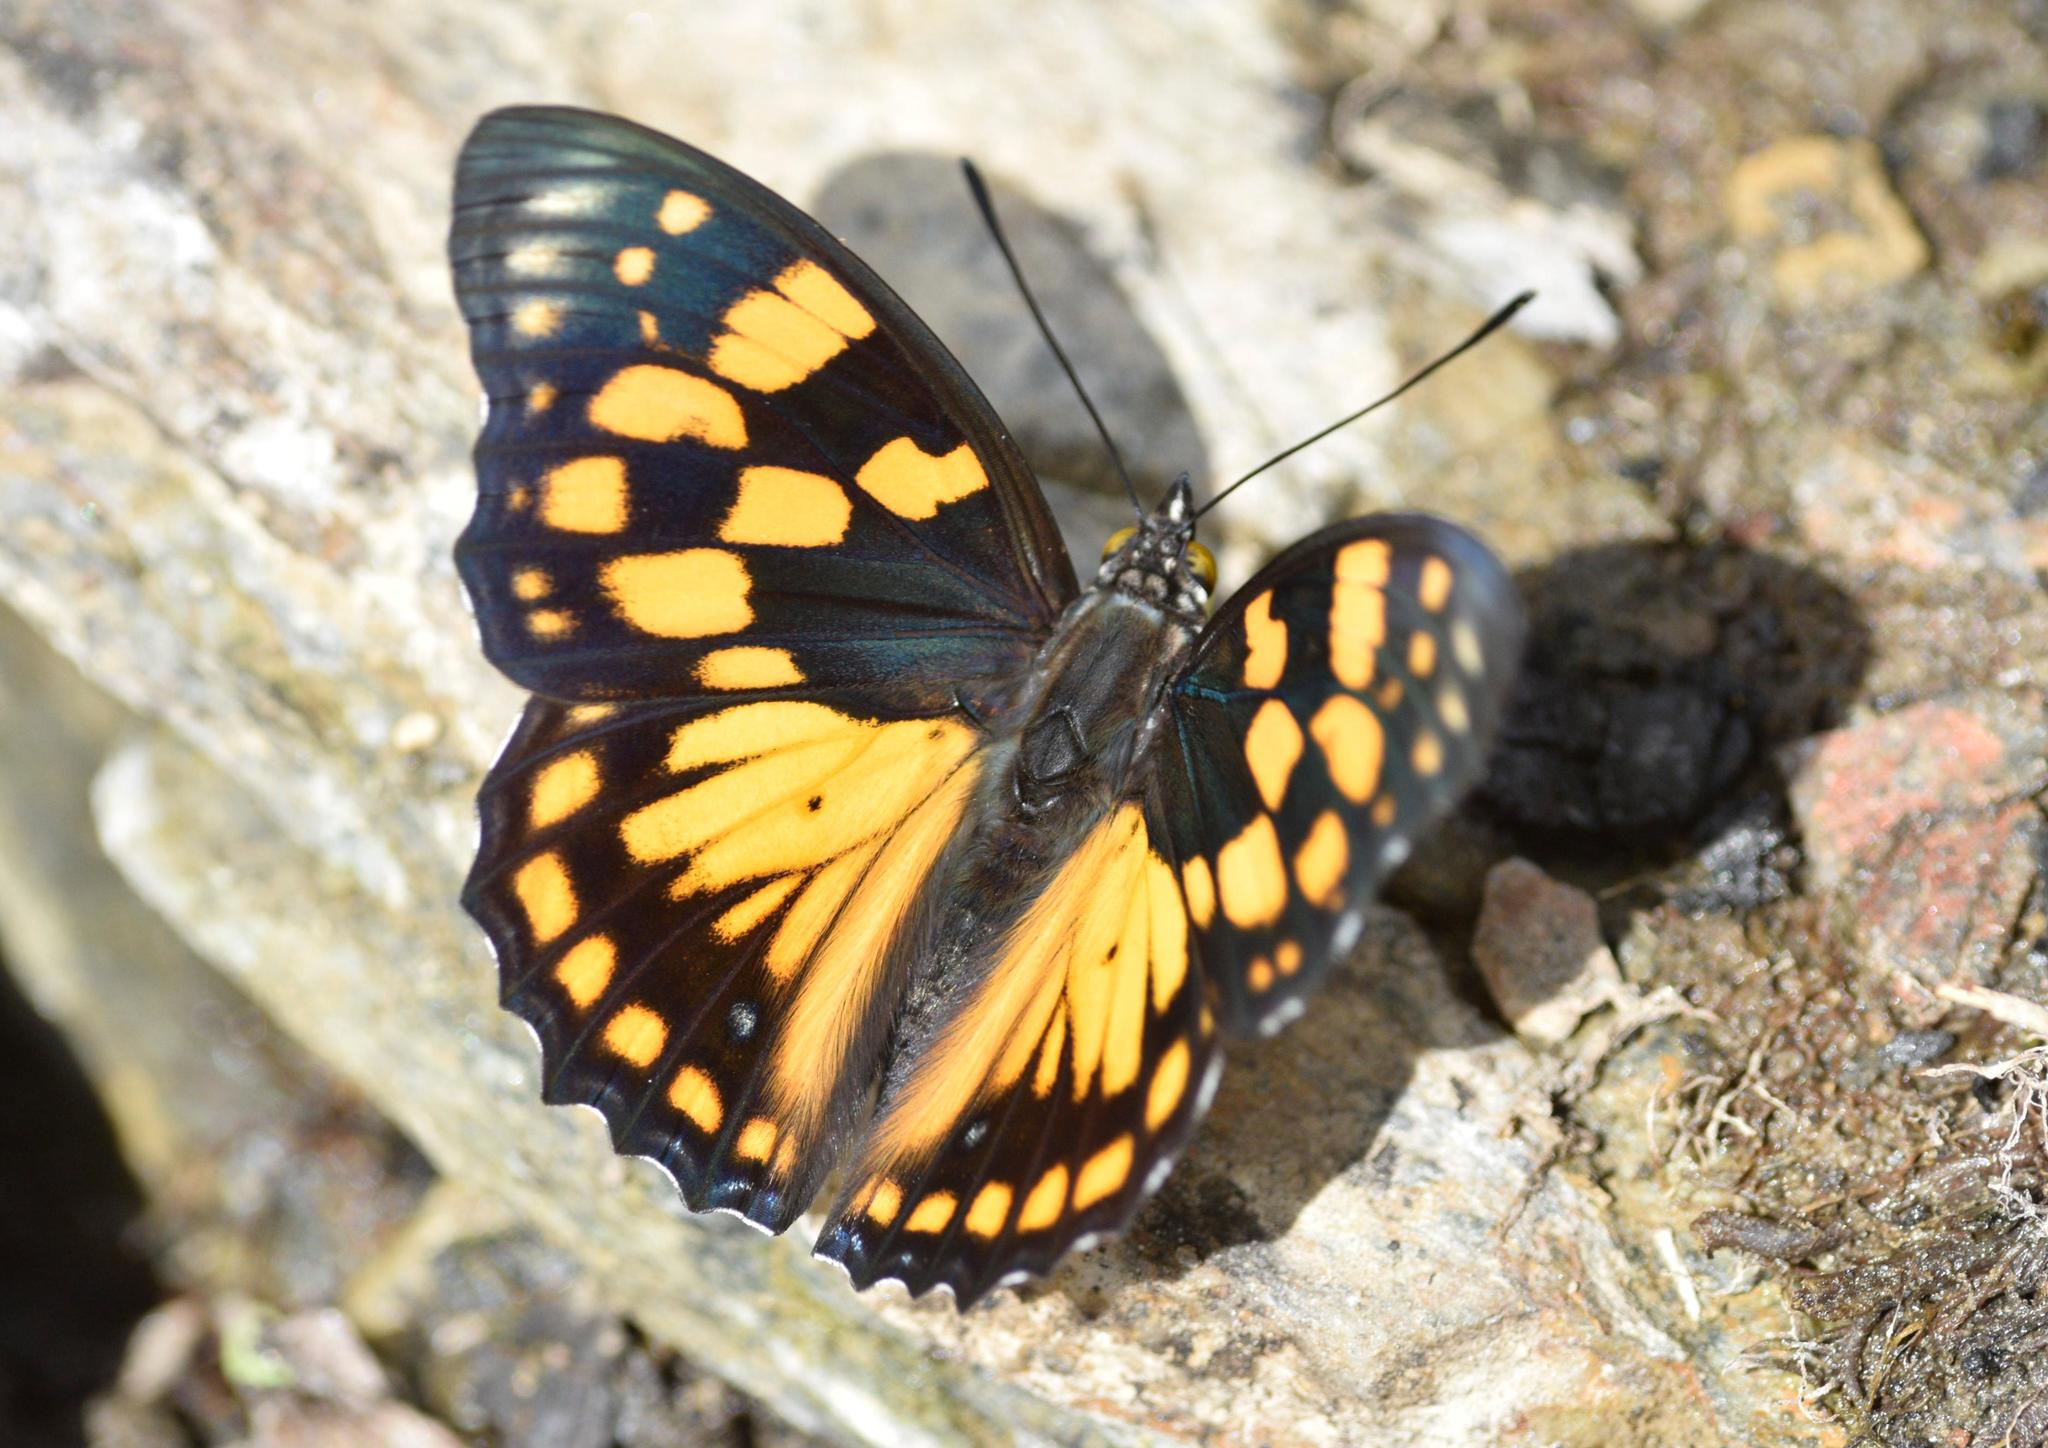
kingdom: Animalia
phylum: Arthropoda
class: Insecta
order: Lepidoptera
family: Nymphalidae
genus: Sephisa
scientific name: Sephisa dichroa
